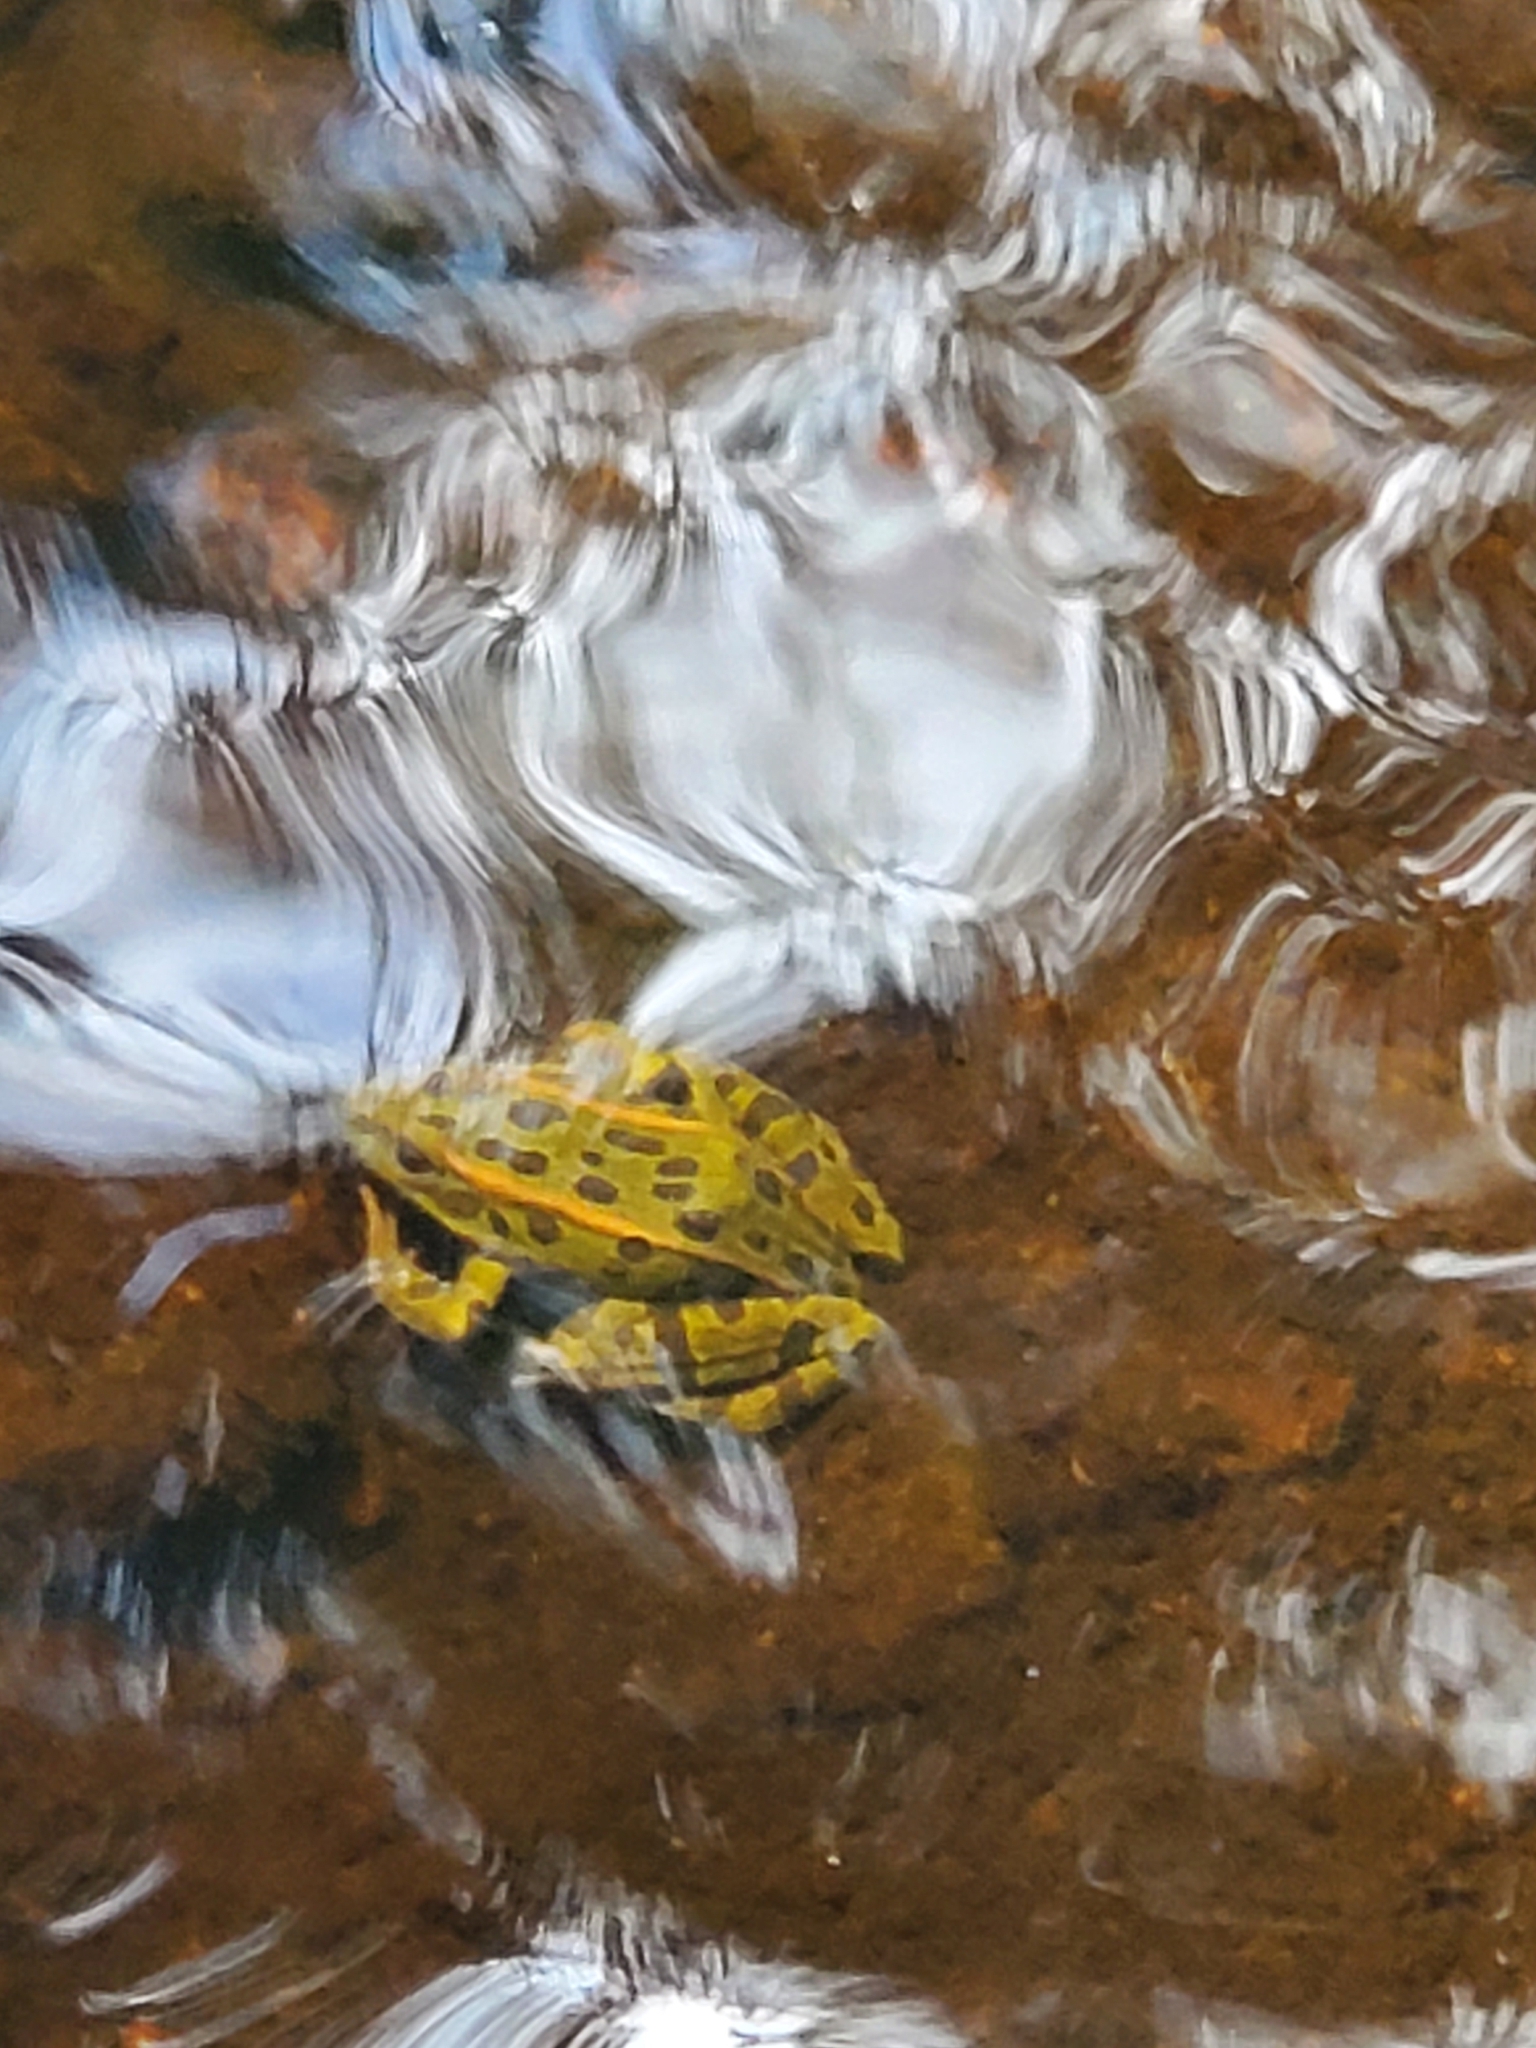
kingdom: Animalia
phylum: Chordata
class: Amphibia
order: Anura
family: Ranidae
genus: Lithobates
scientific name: Lithobates pipiens
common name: Northern leopard frog
